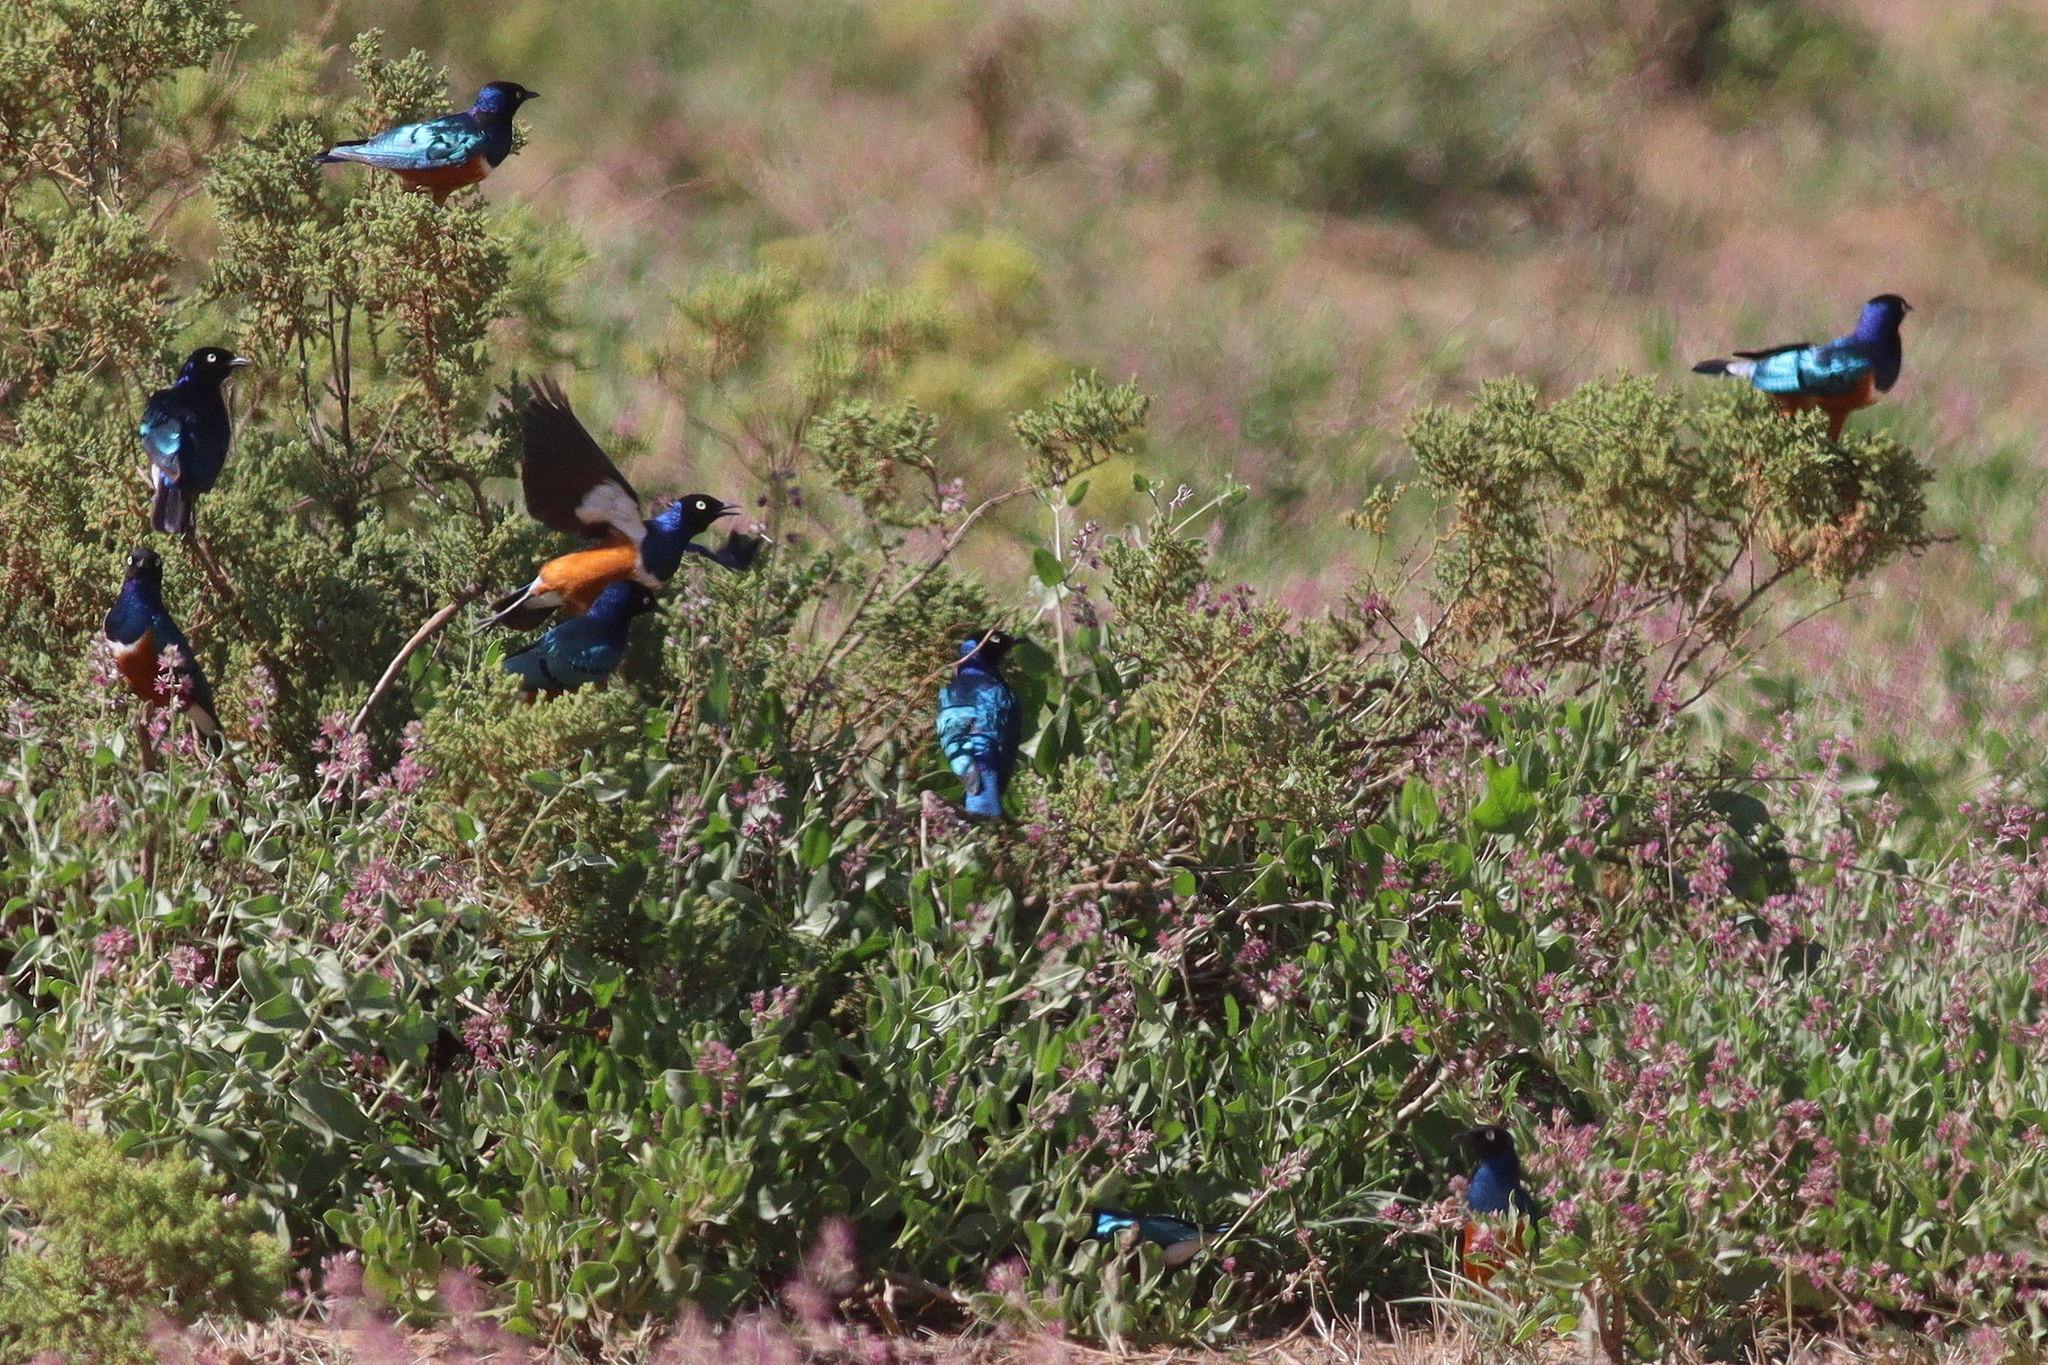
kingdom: Animalia
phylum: Chordata
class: Aves
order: Passeriformes
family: Sturnidae
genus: Lamprotornis
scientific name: Lamprotornis superbus
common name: Superb starling
